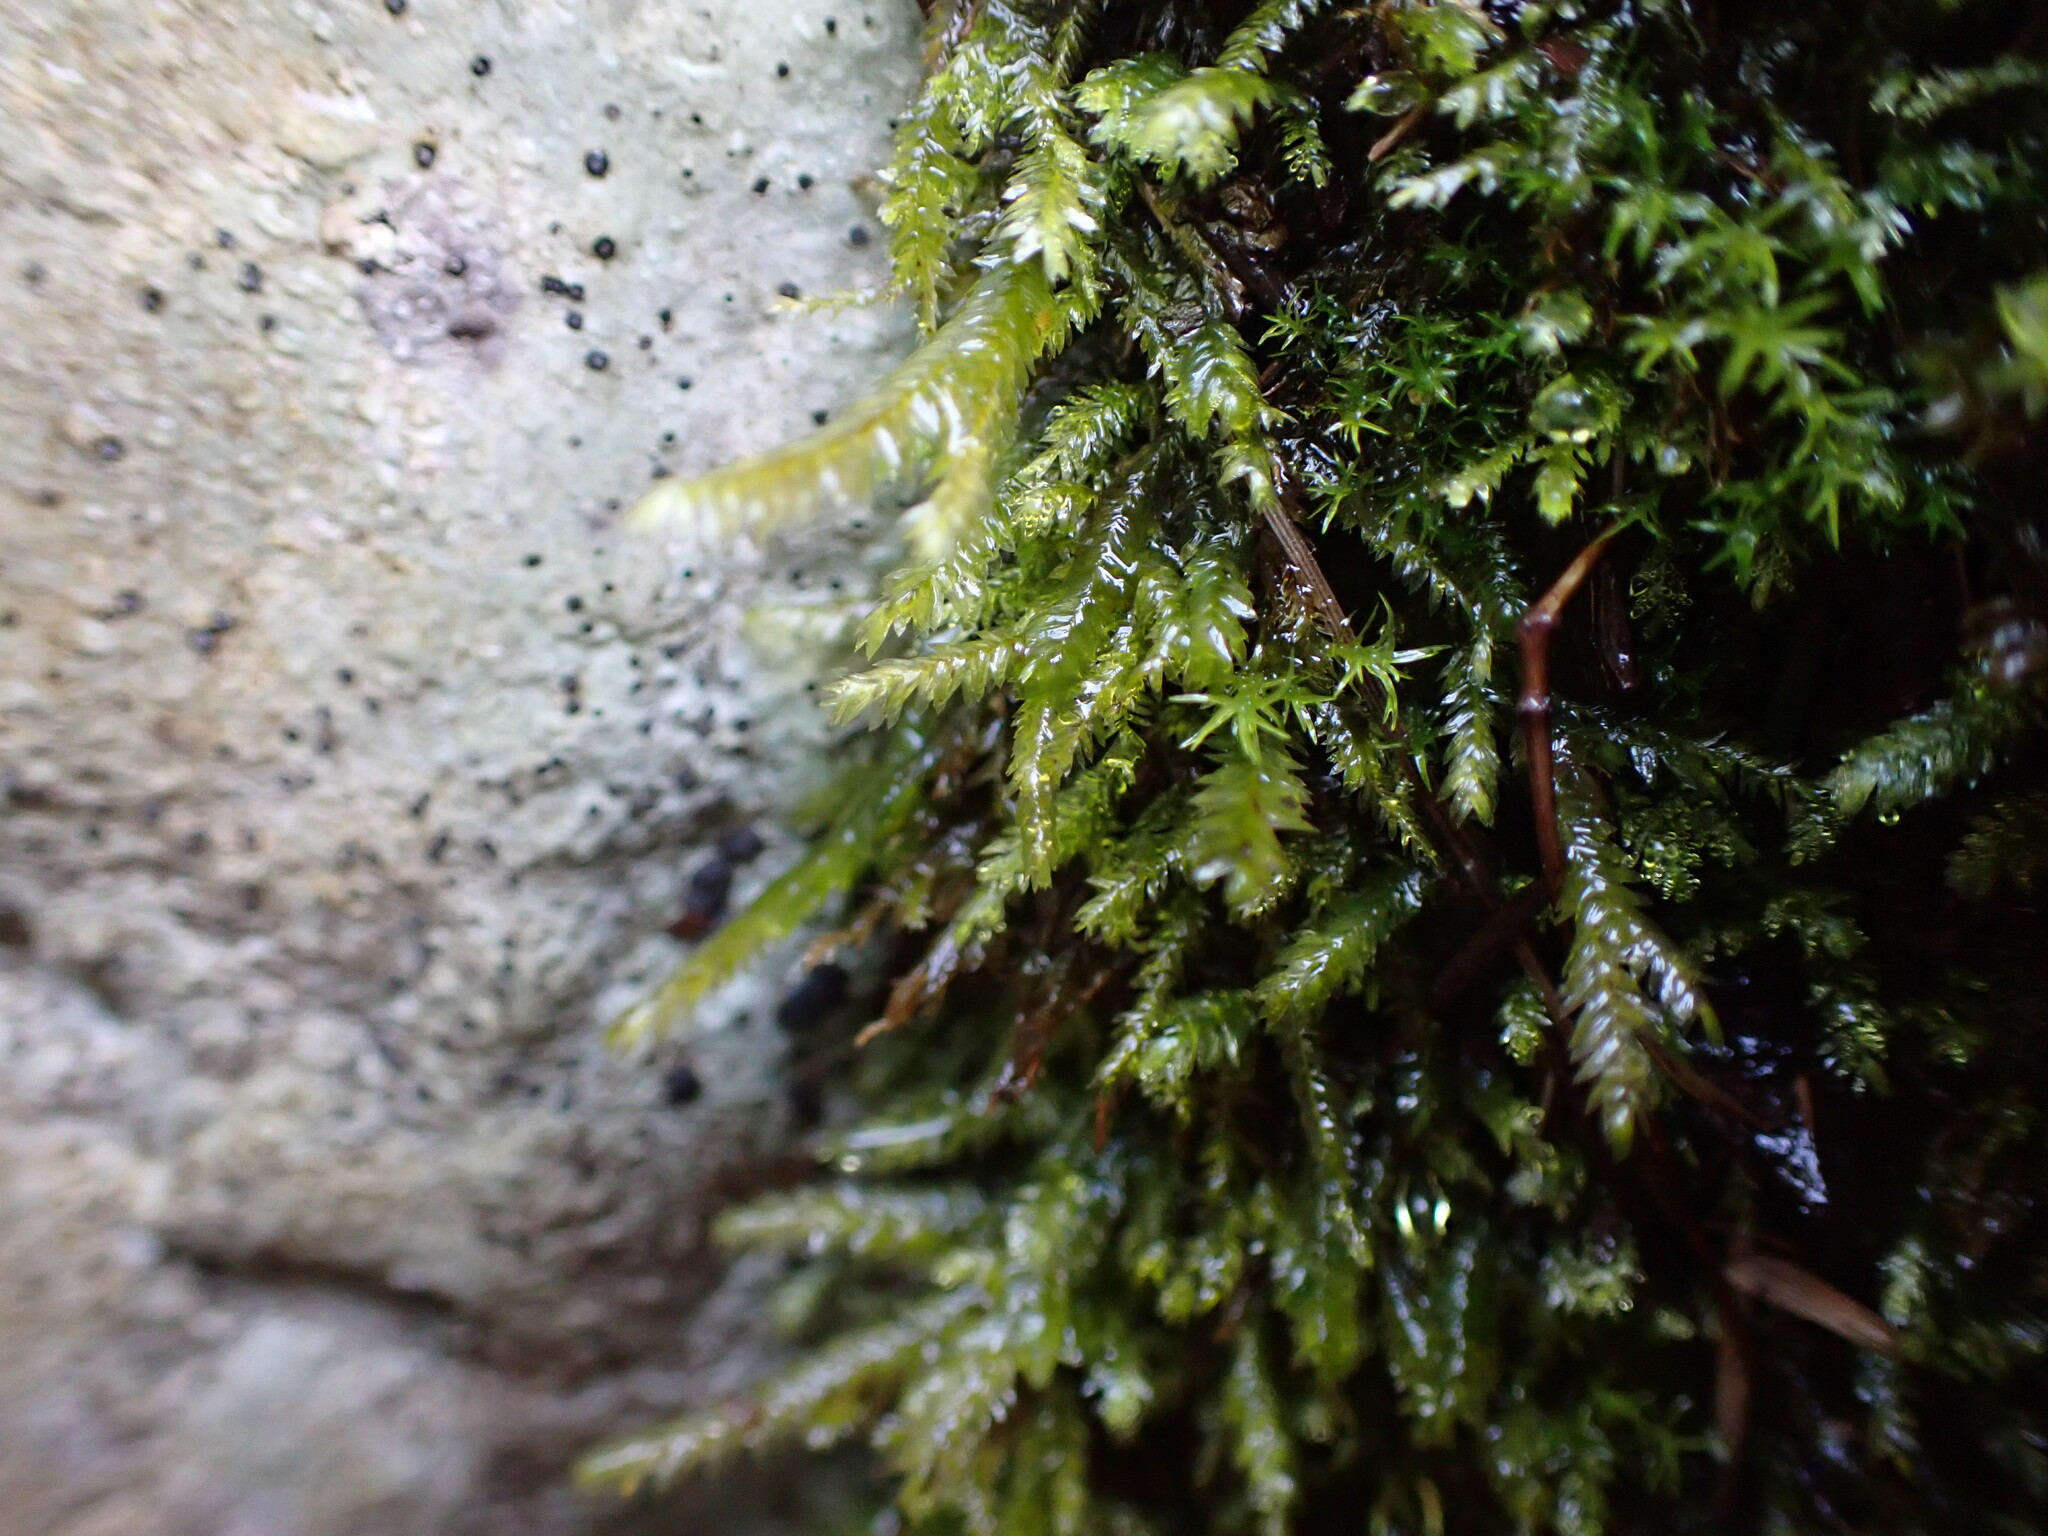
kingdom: Plantae
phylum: Bryophyta
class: Bryopsida
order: Hypnales
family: Neckeraceae
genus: Dannorrisia
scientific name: Dannorrisia bigelovii
